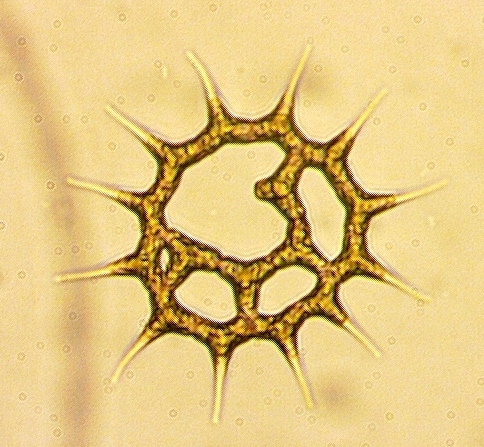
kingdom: Plantae
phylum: Chlorophyta
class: Chlorophyceae
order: Sphaeropleales
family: Hydrodictyaceae
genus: Monactinus
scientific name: Monactinus simplex
